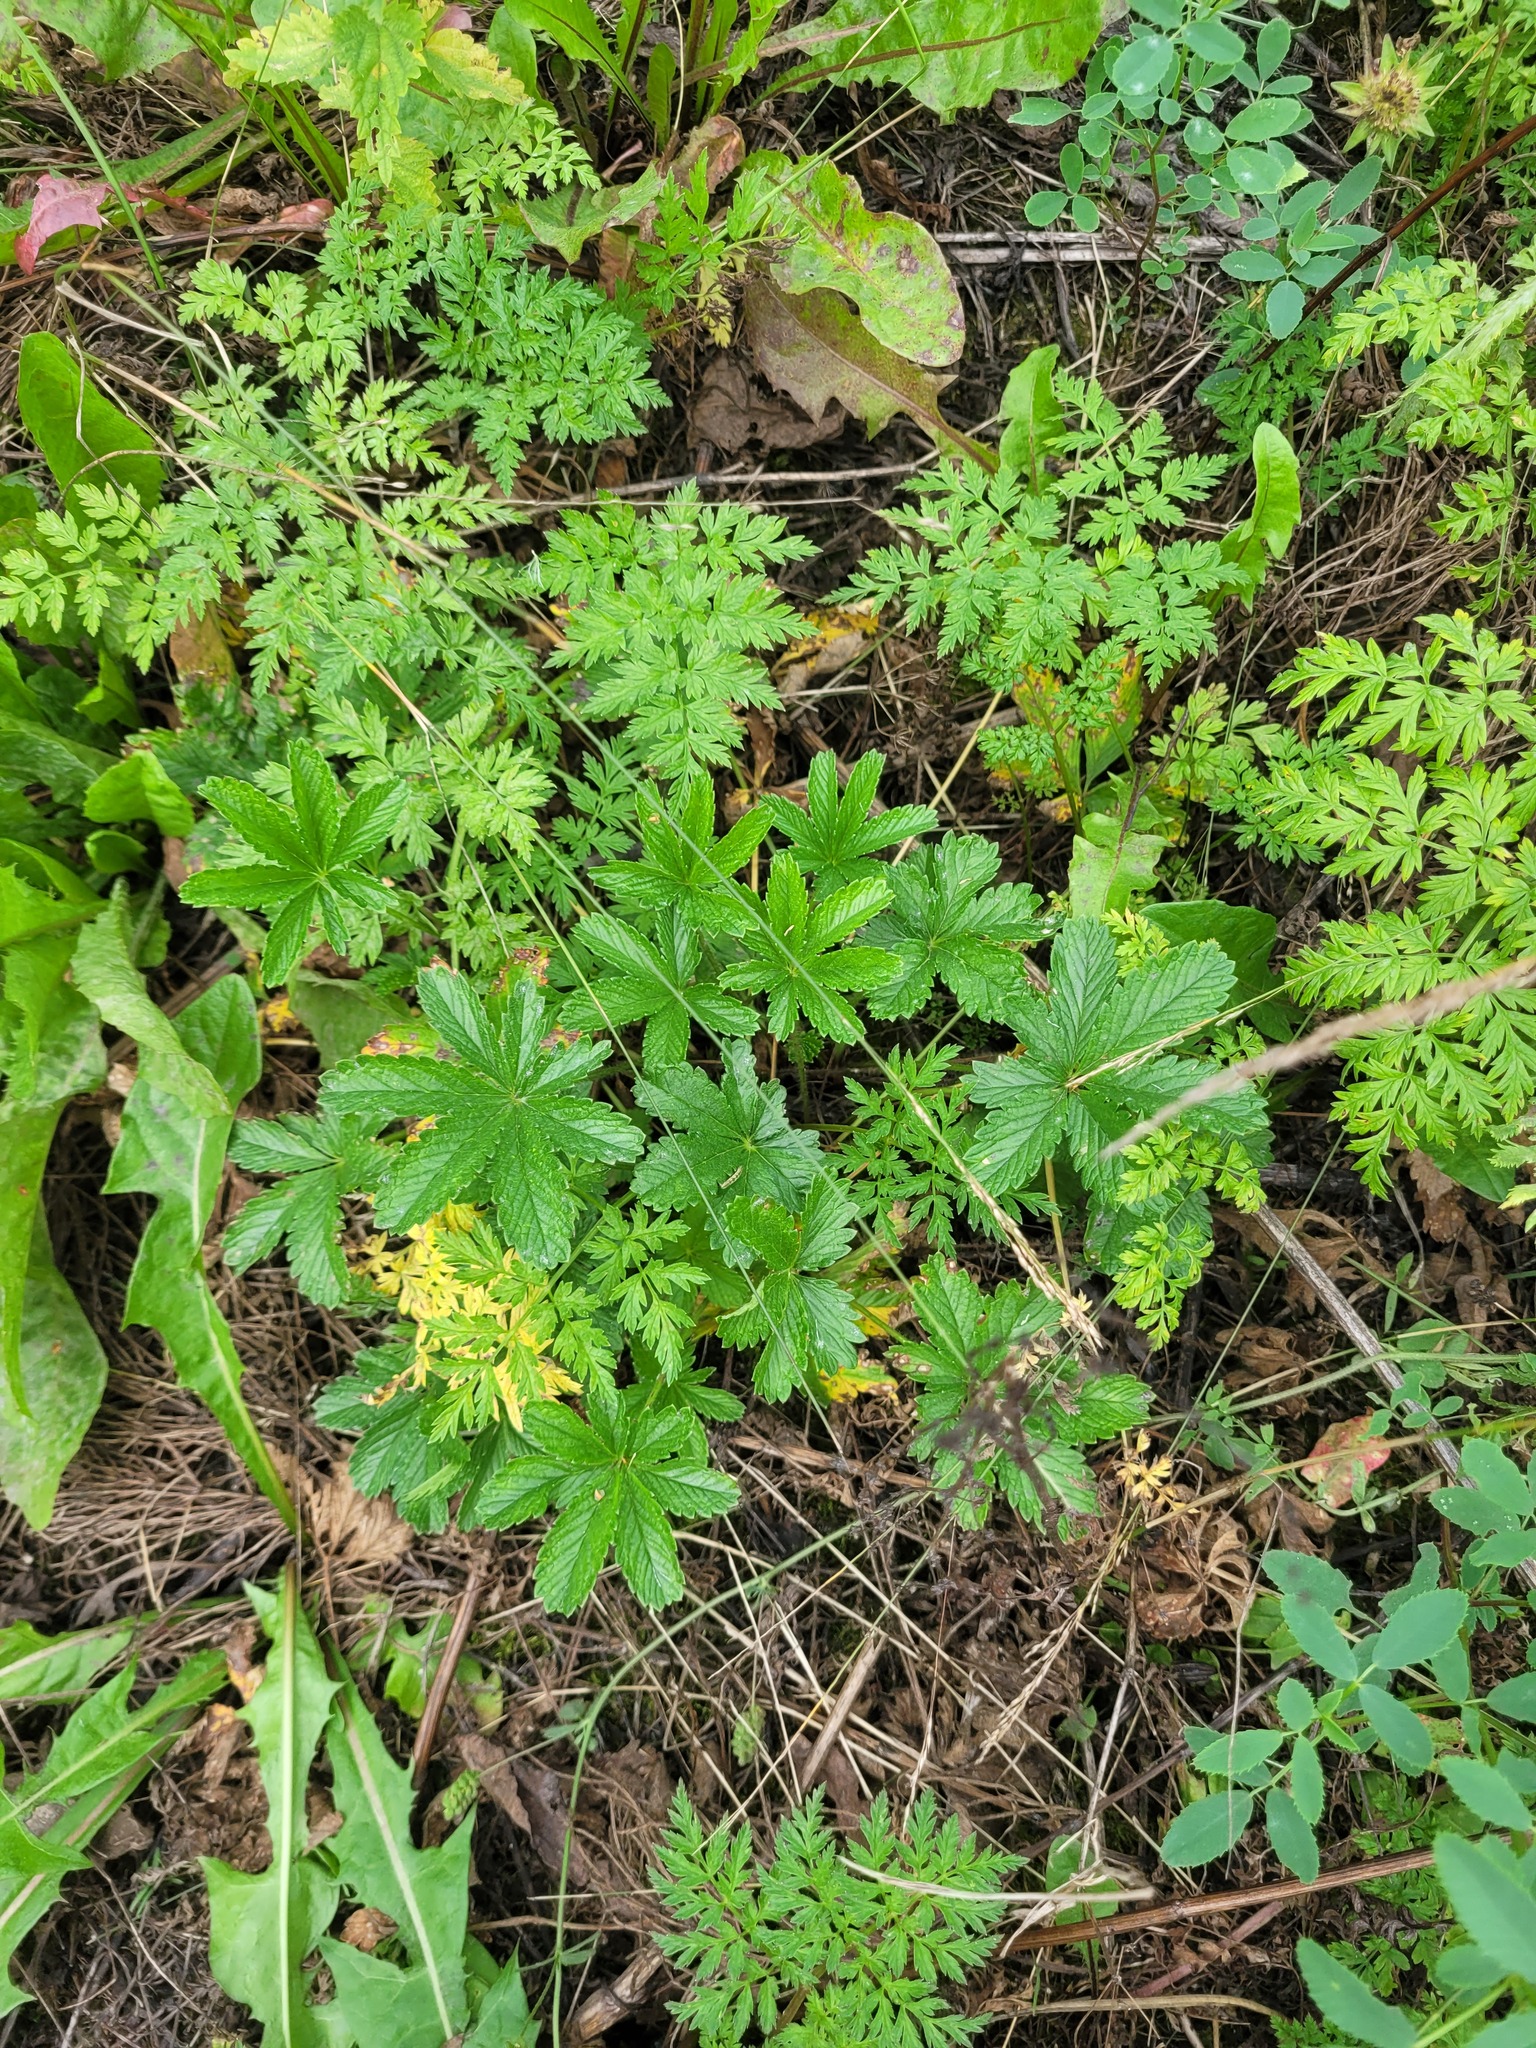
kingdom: Plantae
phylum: Tracheophyta
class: Magnoliopsida
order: Rosales
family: Rosaceae
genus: Potentilla
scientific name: Potentilla thuringiaca
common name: European cinquefoil
